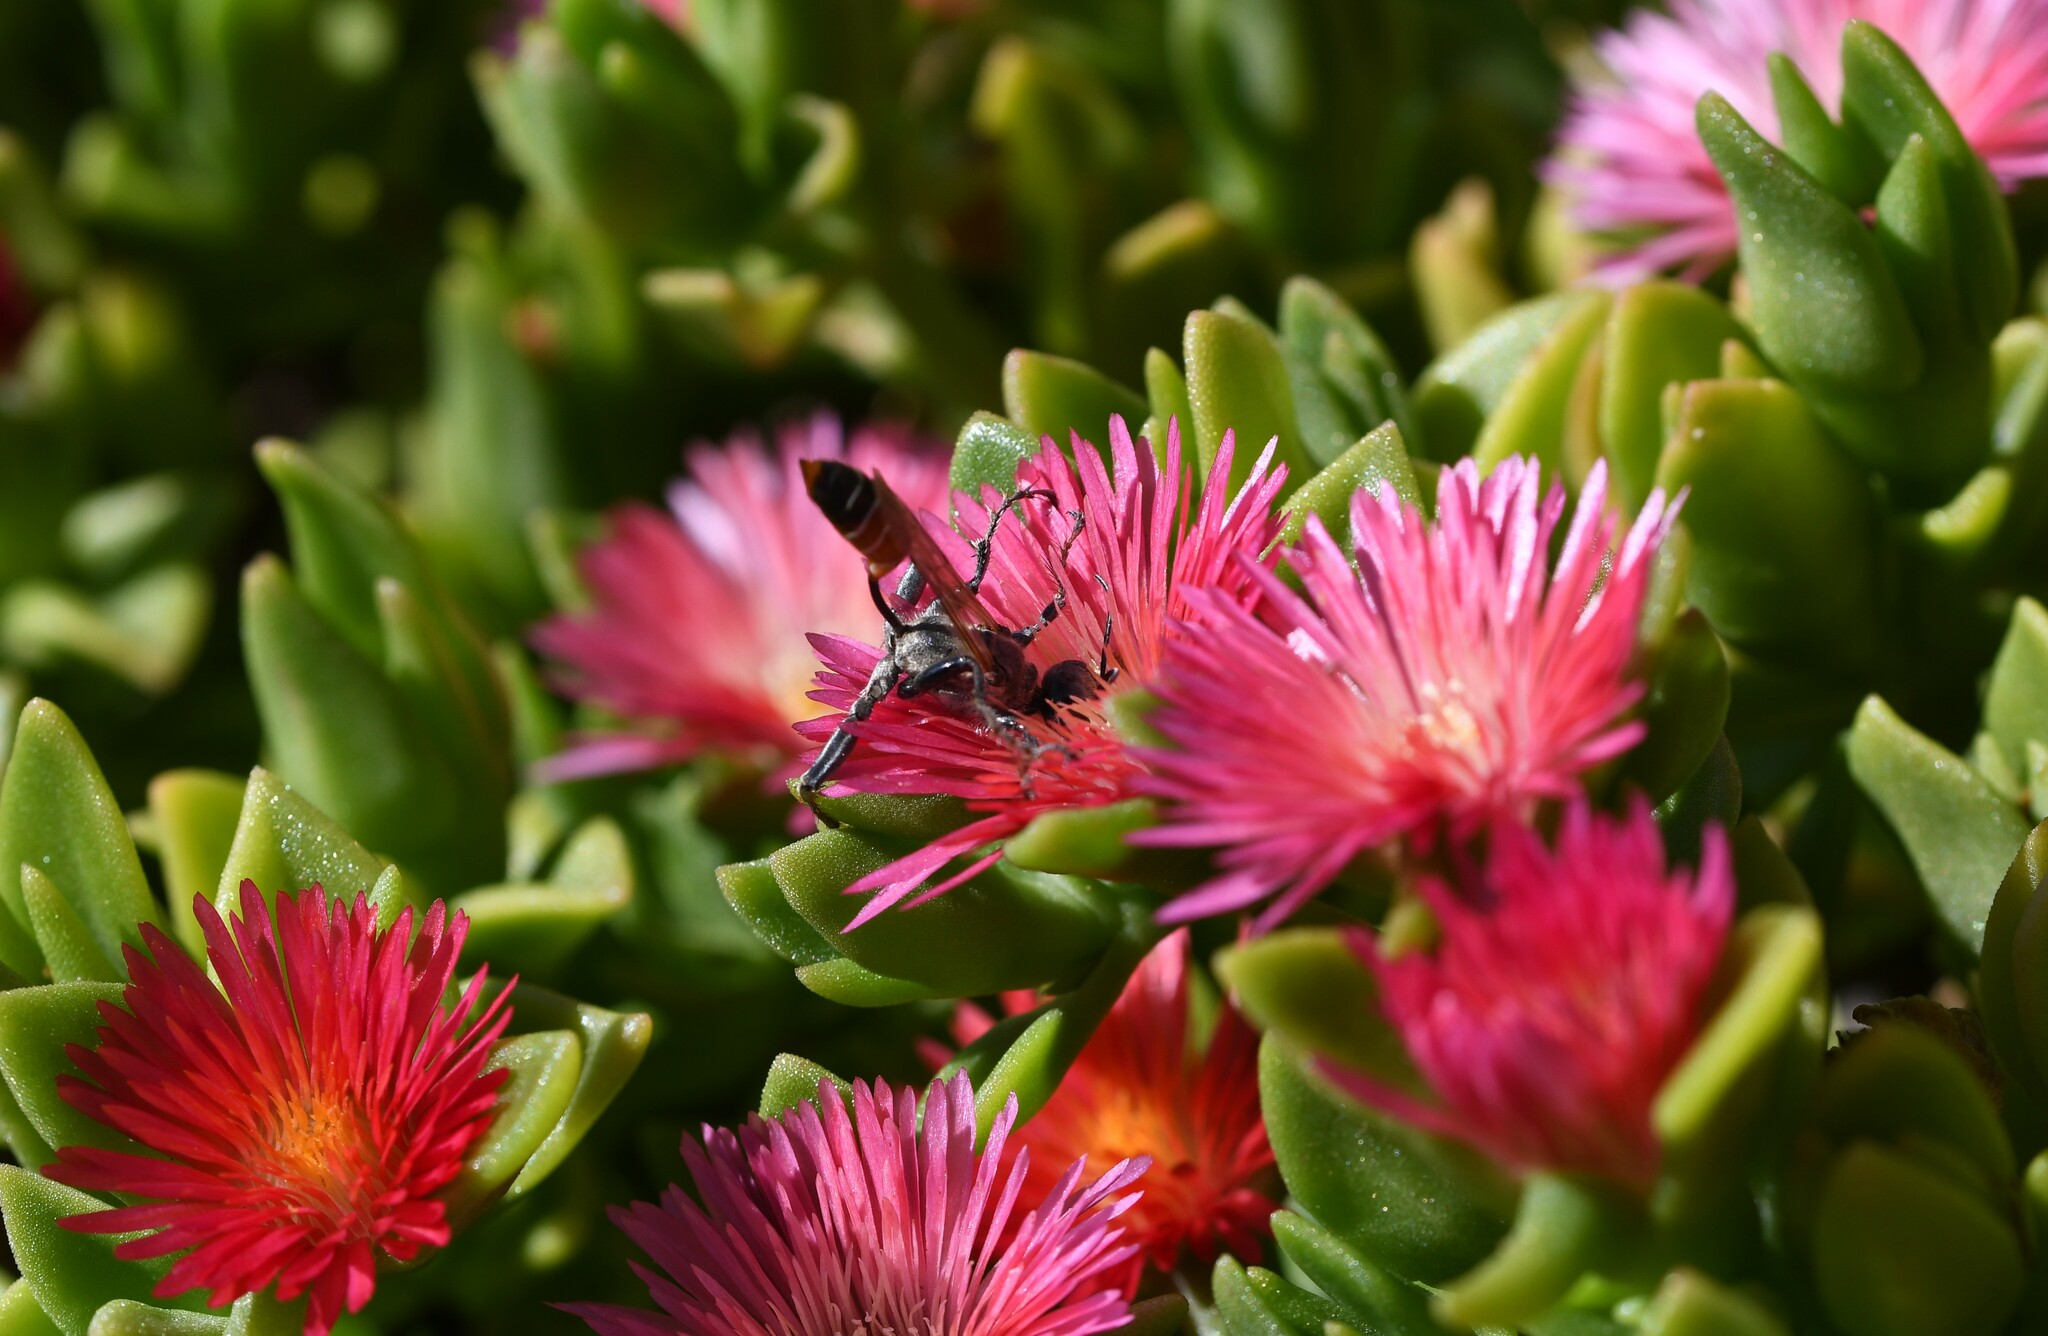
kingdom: Plantae
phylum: Tracheophyta
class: Magnoliopsida
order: Caryophyllales
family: Aizoaceae
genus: Mesembryanthemum
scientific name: Mesembryanthemum cordifolium
